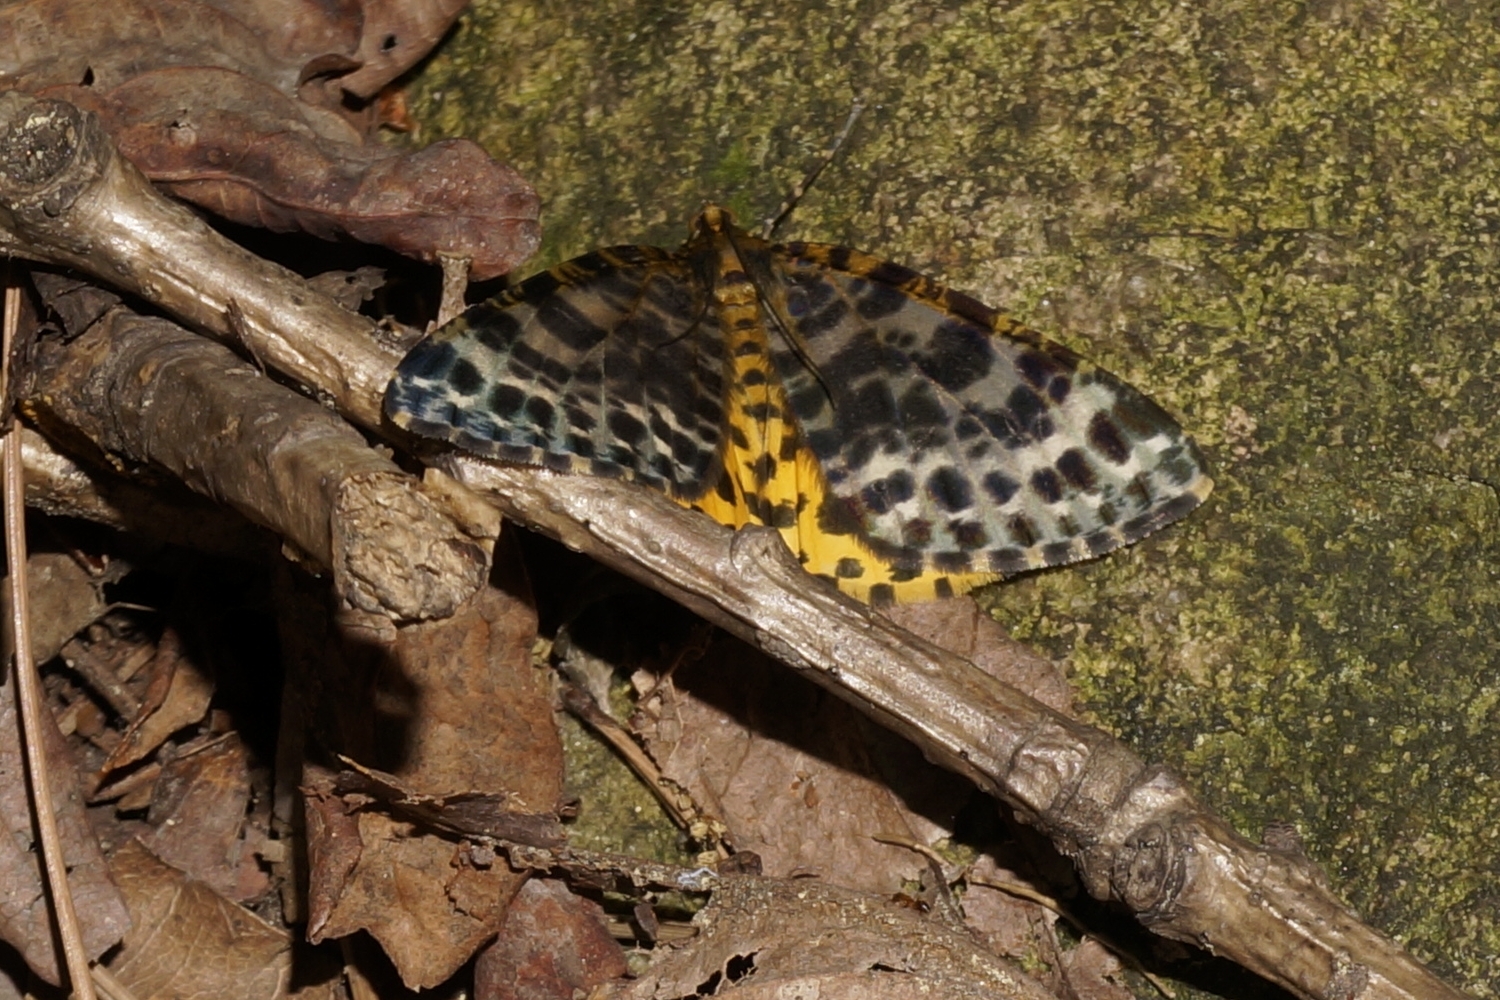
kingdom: Animalia
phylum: Arthropoda
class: Insecta
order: Lepidoptera
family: Geometridae
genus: Arichanna
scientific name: Arichanna melanaria
